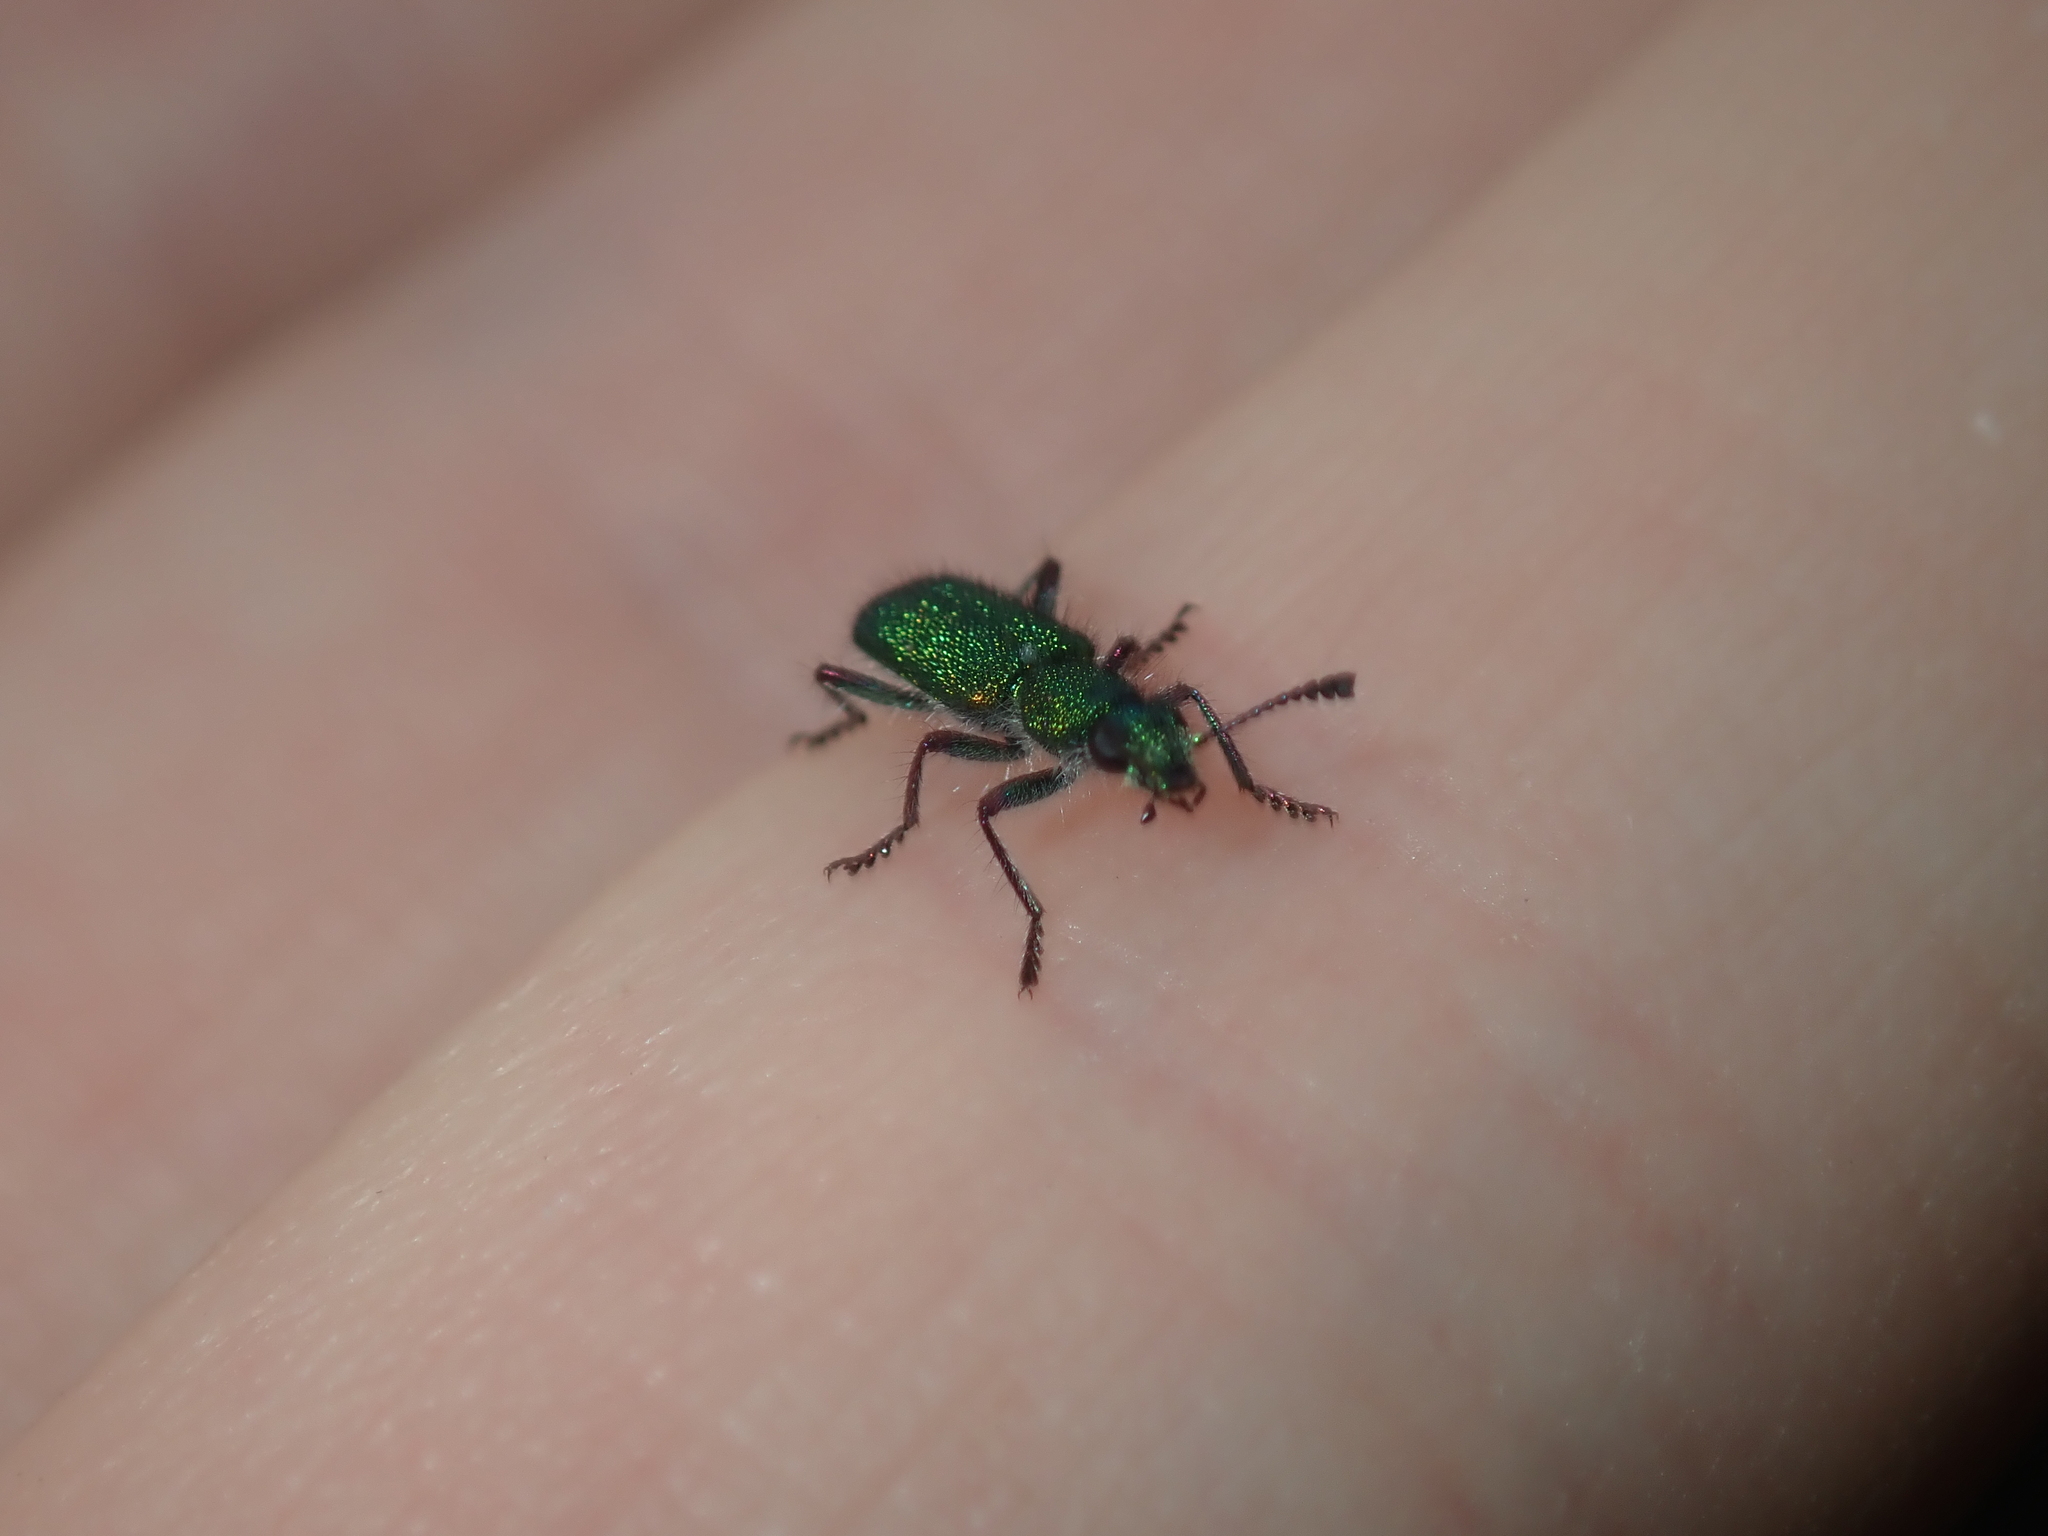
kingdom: Animalia
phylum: Arthropoda
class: Insecta
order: Coleoptera
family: Cleridae
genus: Eleale
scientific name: Eleale
